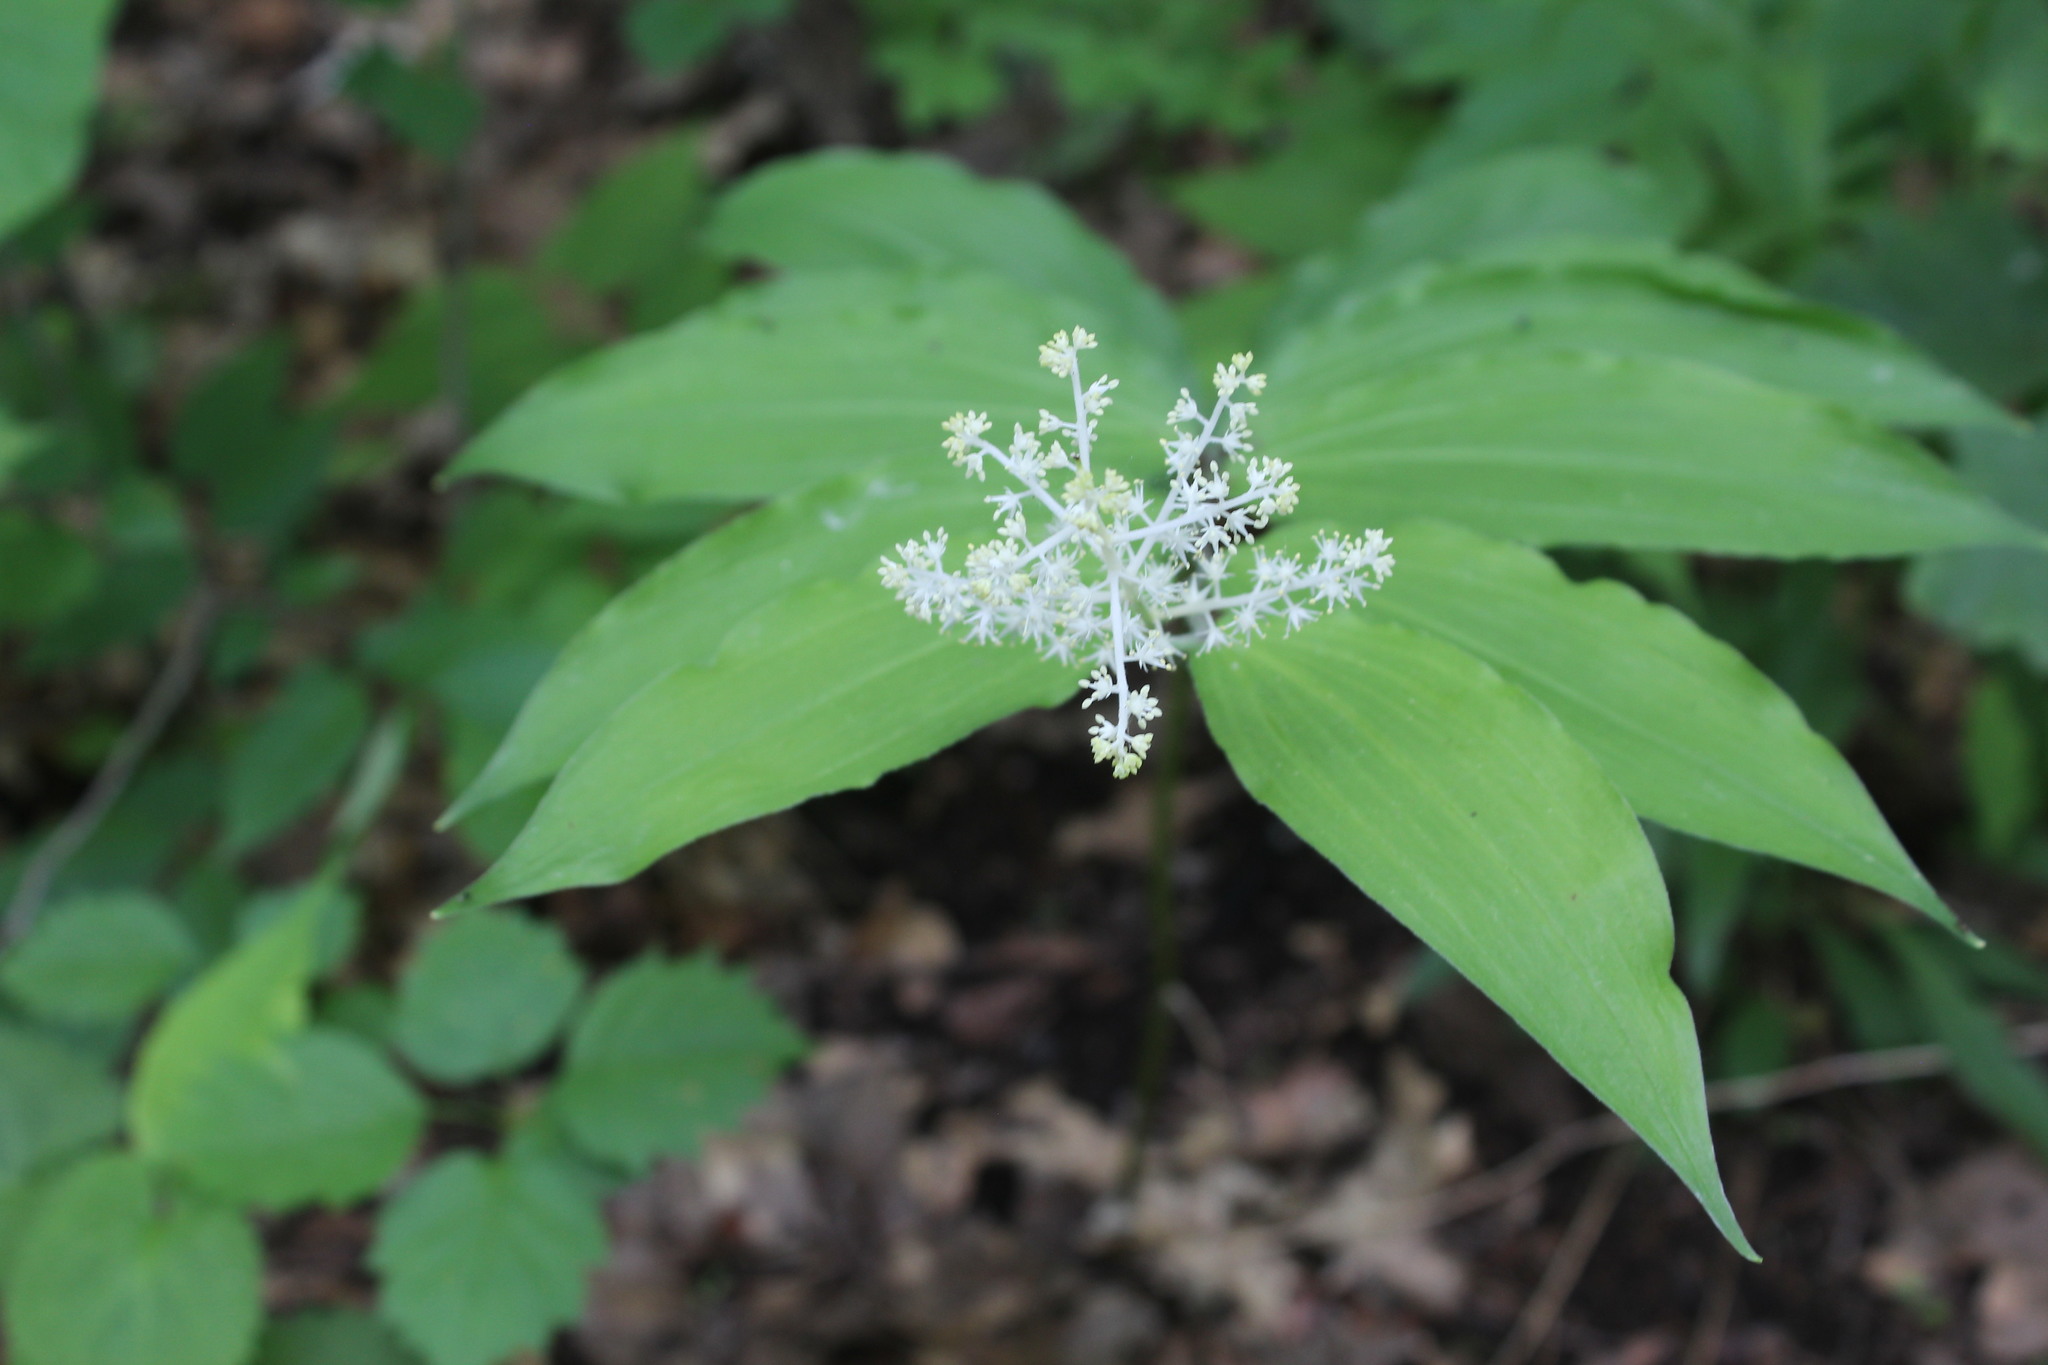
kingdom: Plantae
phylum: Tracheophyta
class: Liliopsida
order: Asparagales
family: Asparagaceae
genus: Maianthemum
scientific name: Maianthemum racemosum
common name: False spikenard
